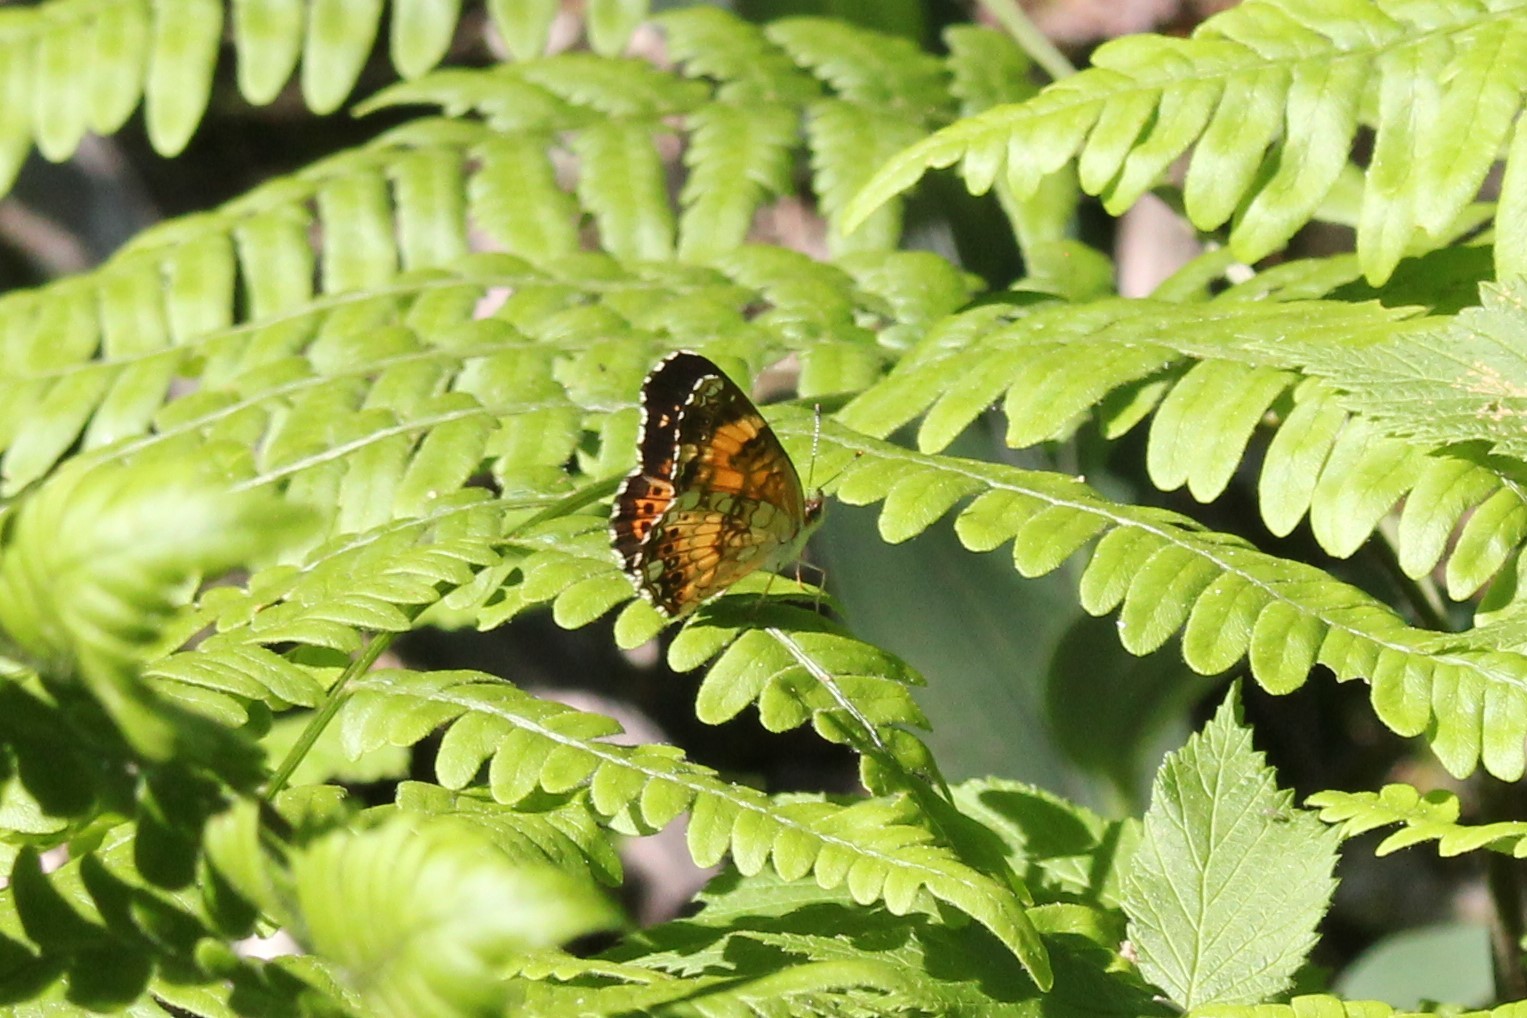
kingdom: Animalia
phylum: Arthropoda
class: Insecta
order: Lepidoptera
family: Nymphalidae
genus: Chlosyne
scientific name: Chlosyne nycteis
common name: Silvery checkerspot
